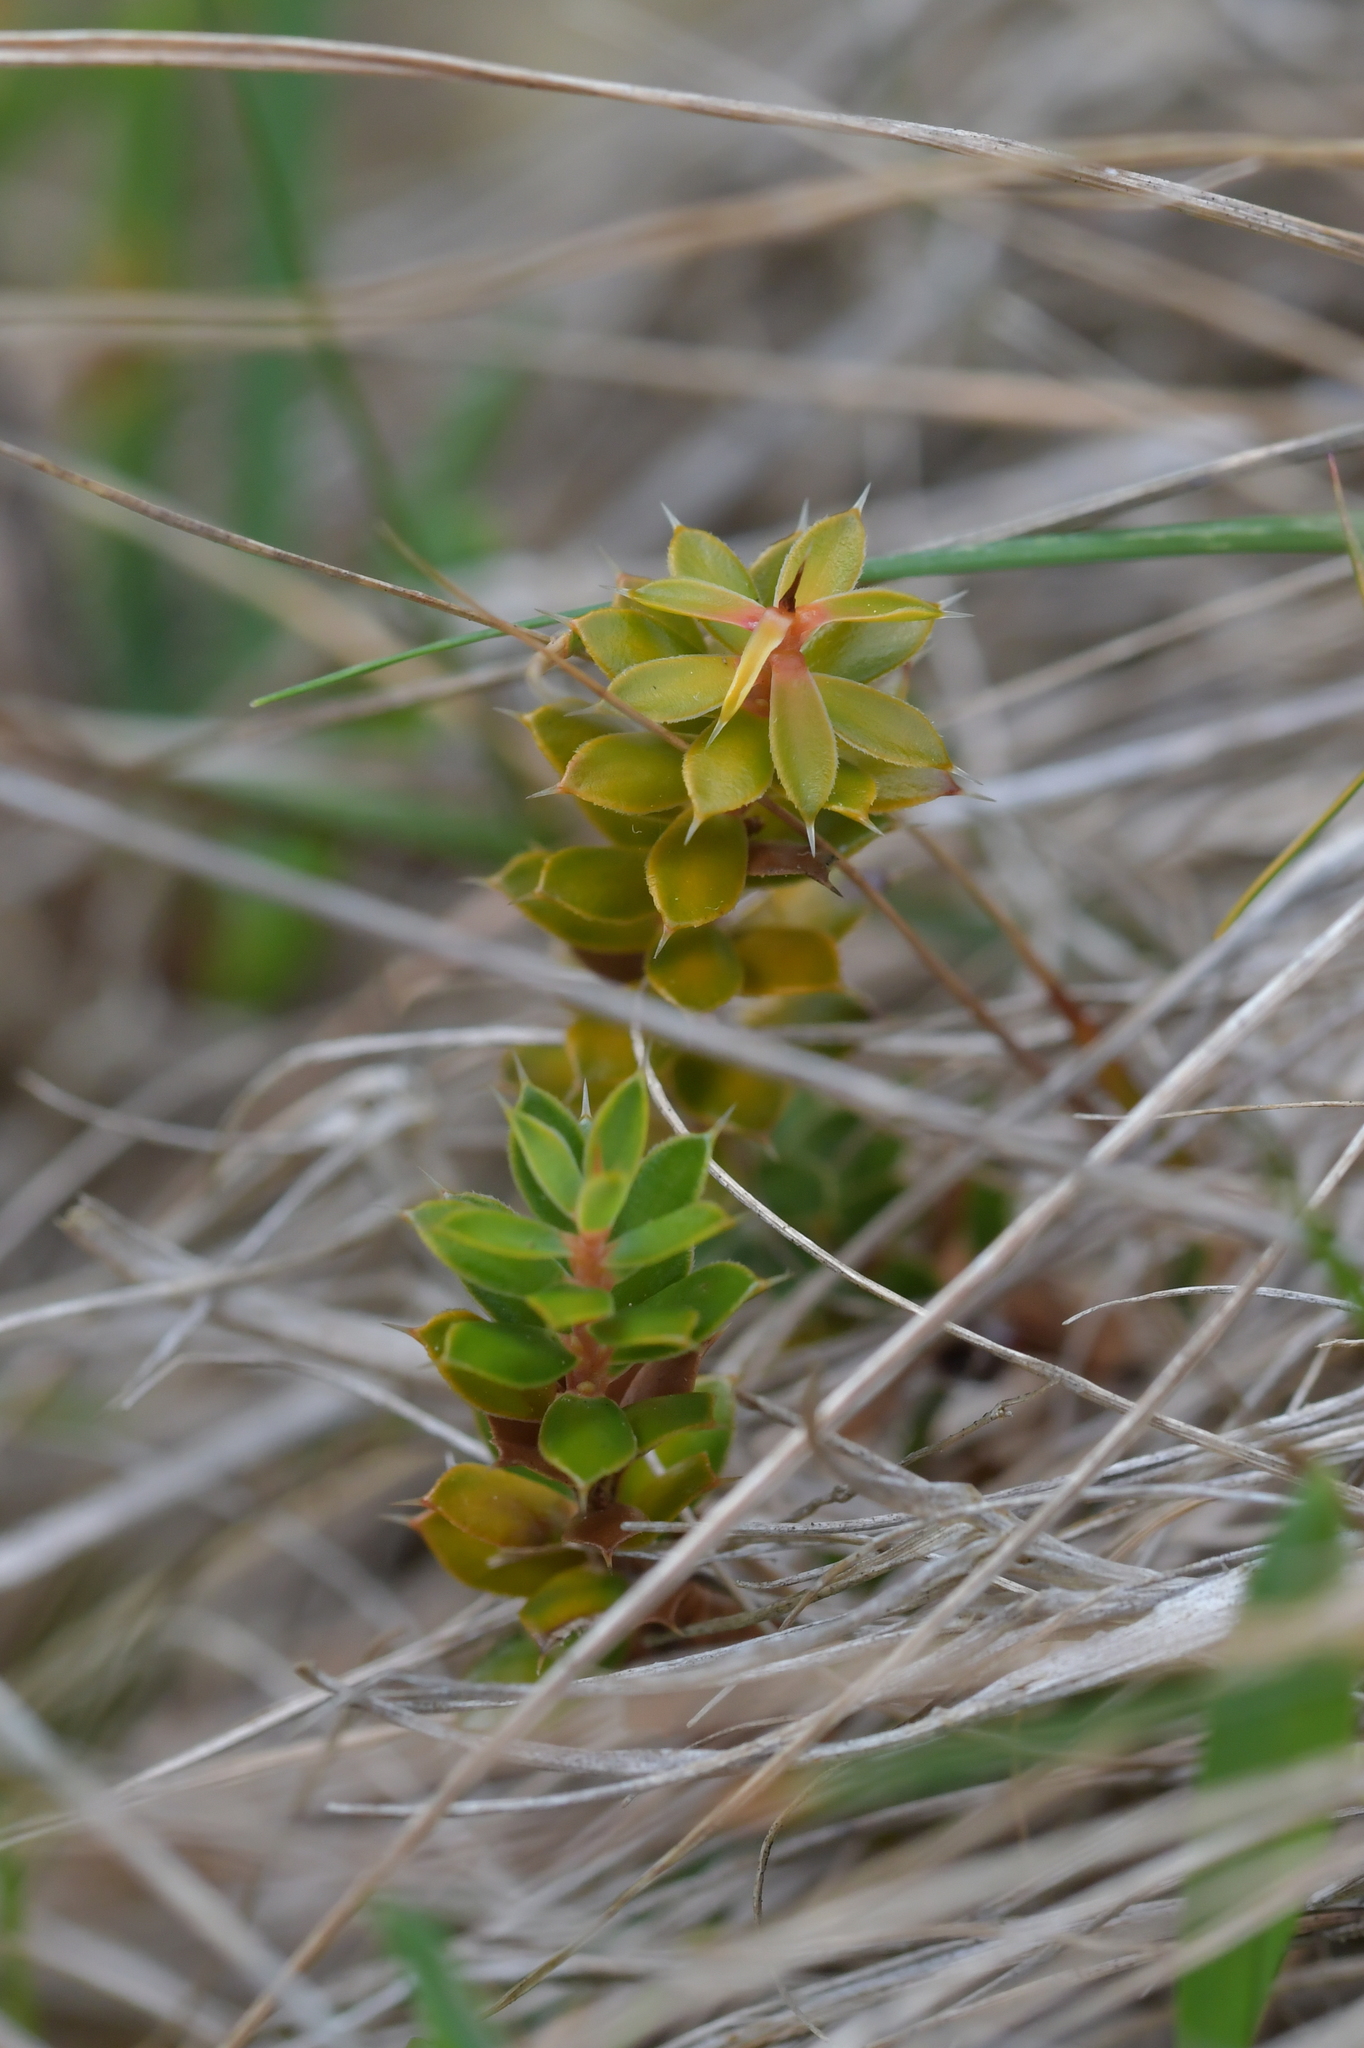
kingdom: Plantae
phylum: Tracheophyta
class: Magnoliopsida
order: Ericales
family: Ericaceae
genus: Styphelia
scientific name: Styphelia nesophila
